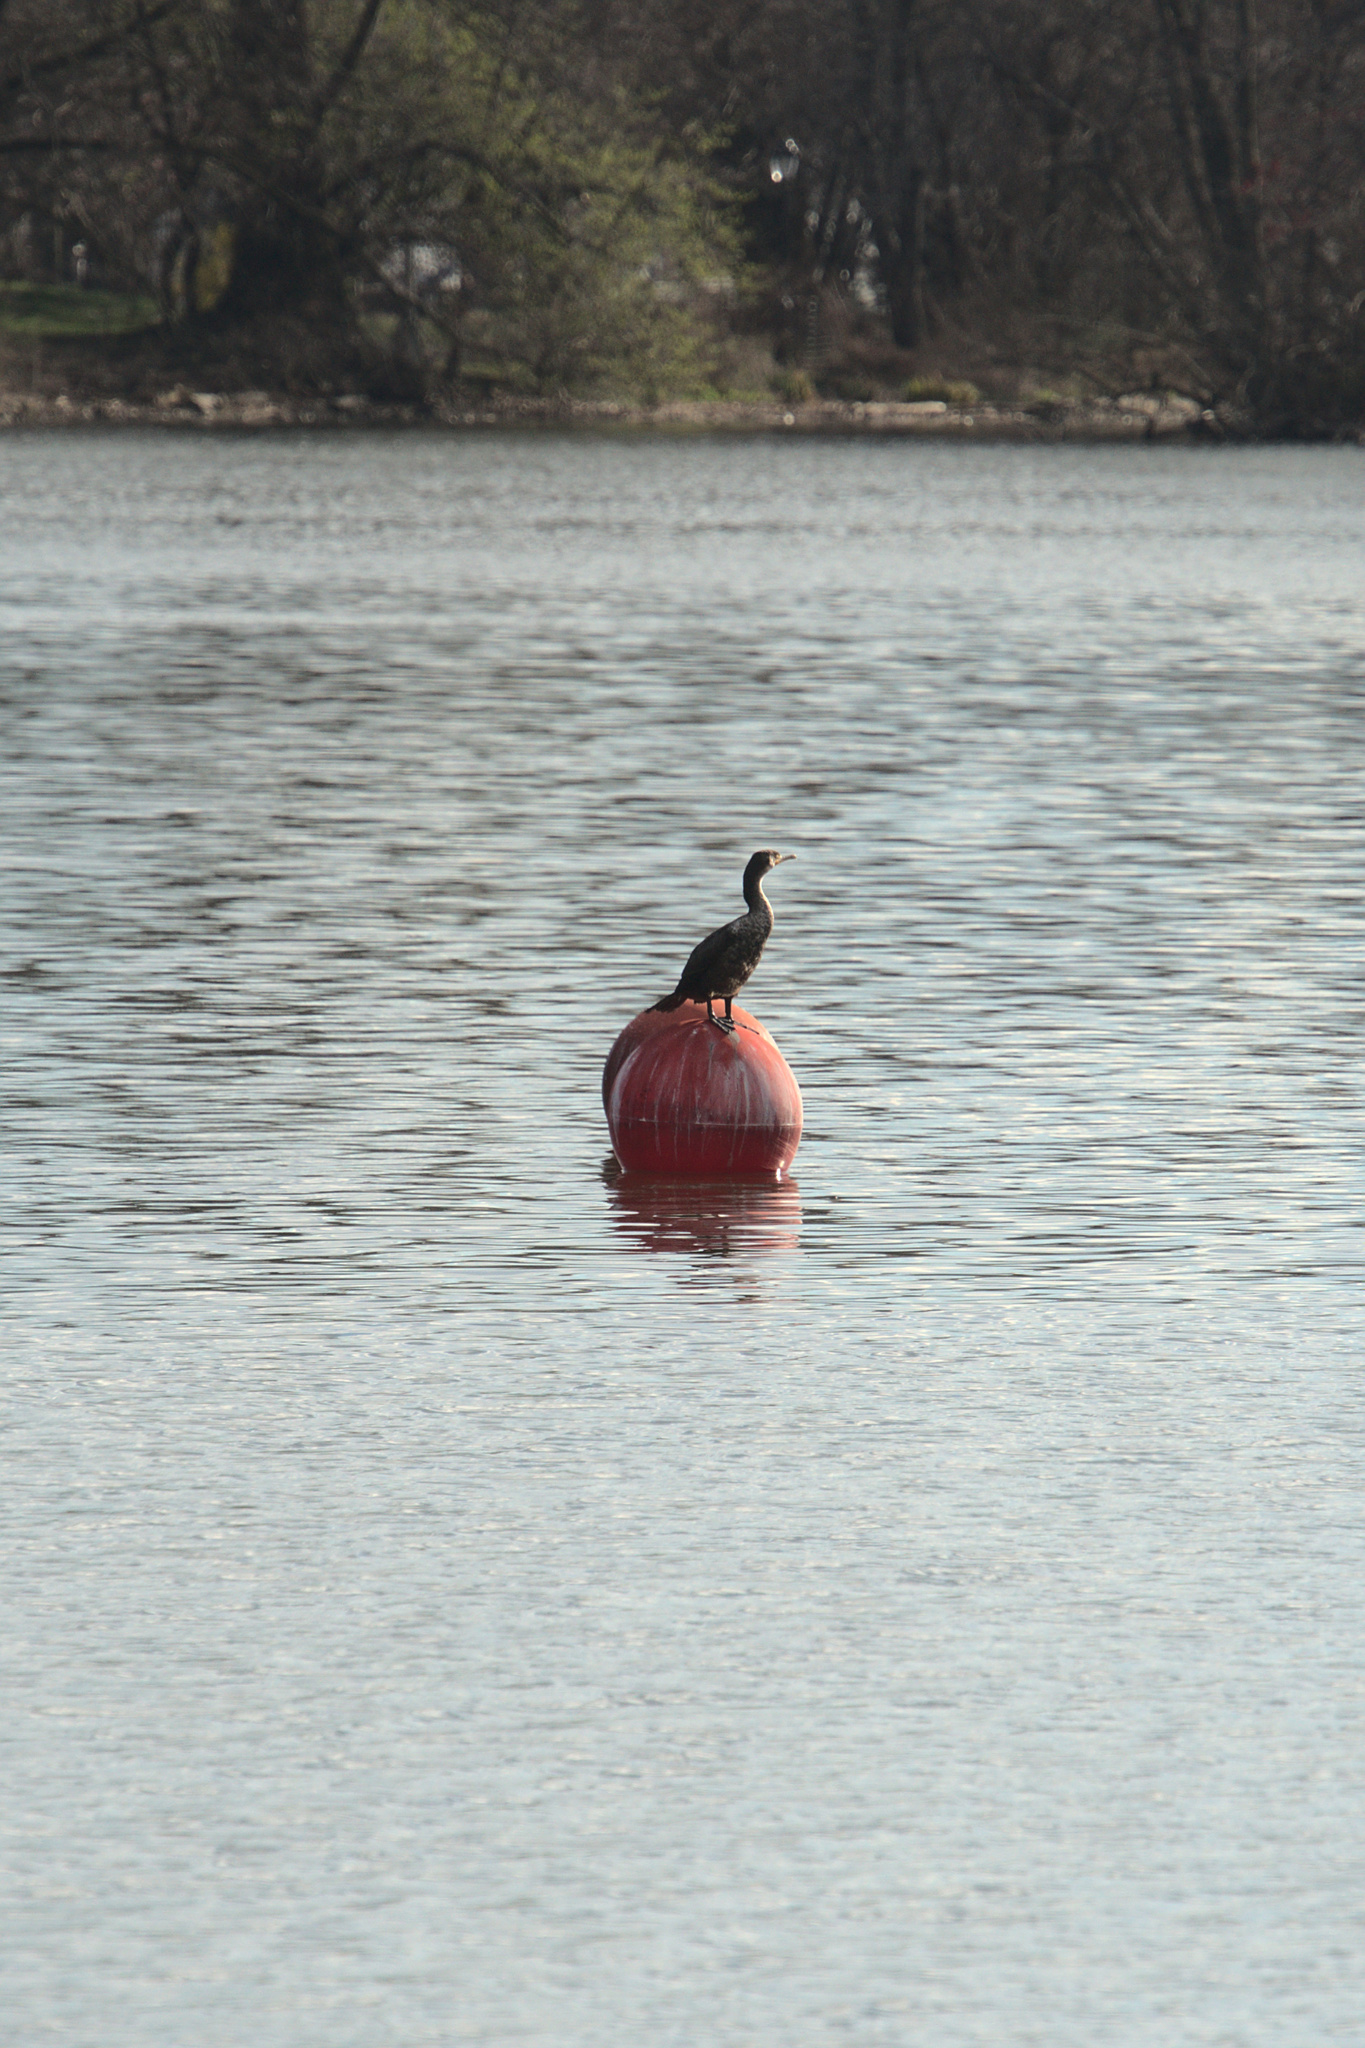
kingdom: Animalia
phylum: Chordata
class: Aves
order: Suliformes
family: Phalacrocoracidae
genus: Phalacrocorax
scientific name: Phalacrocorax auritus
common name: Double-crested cormorant
